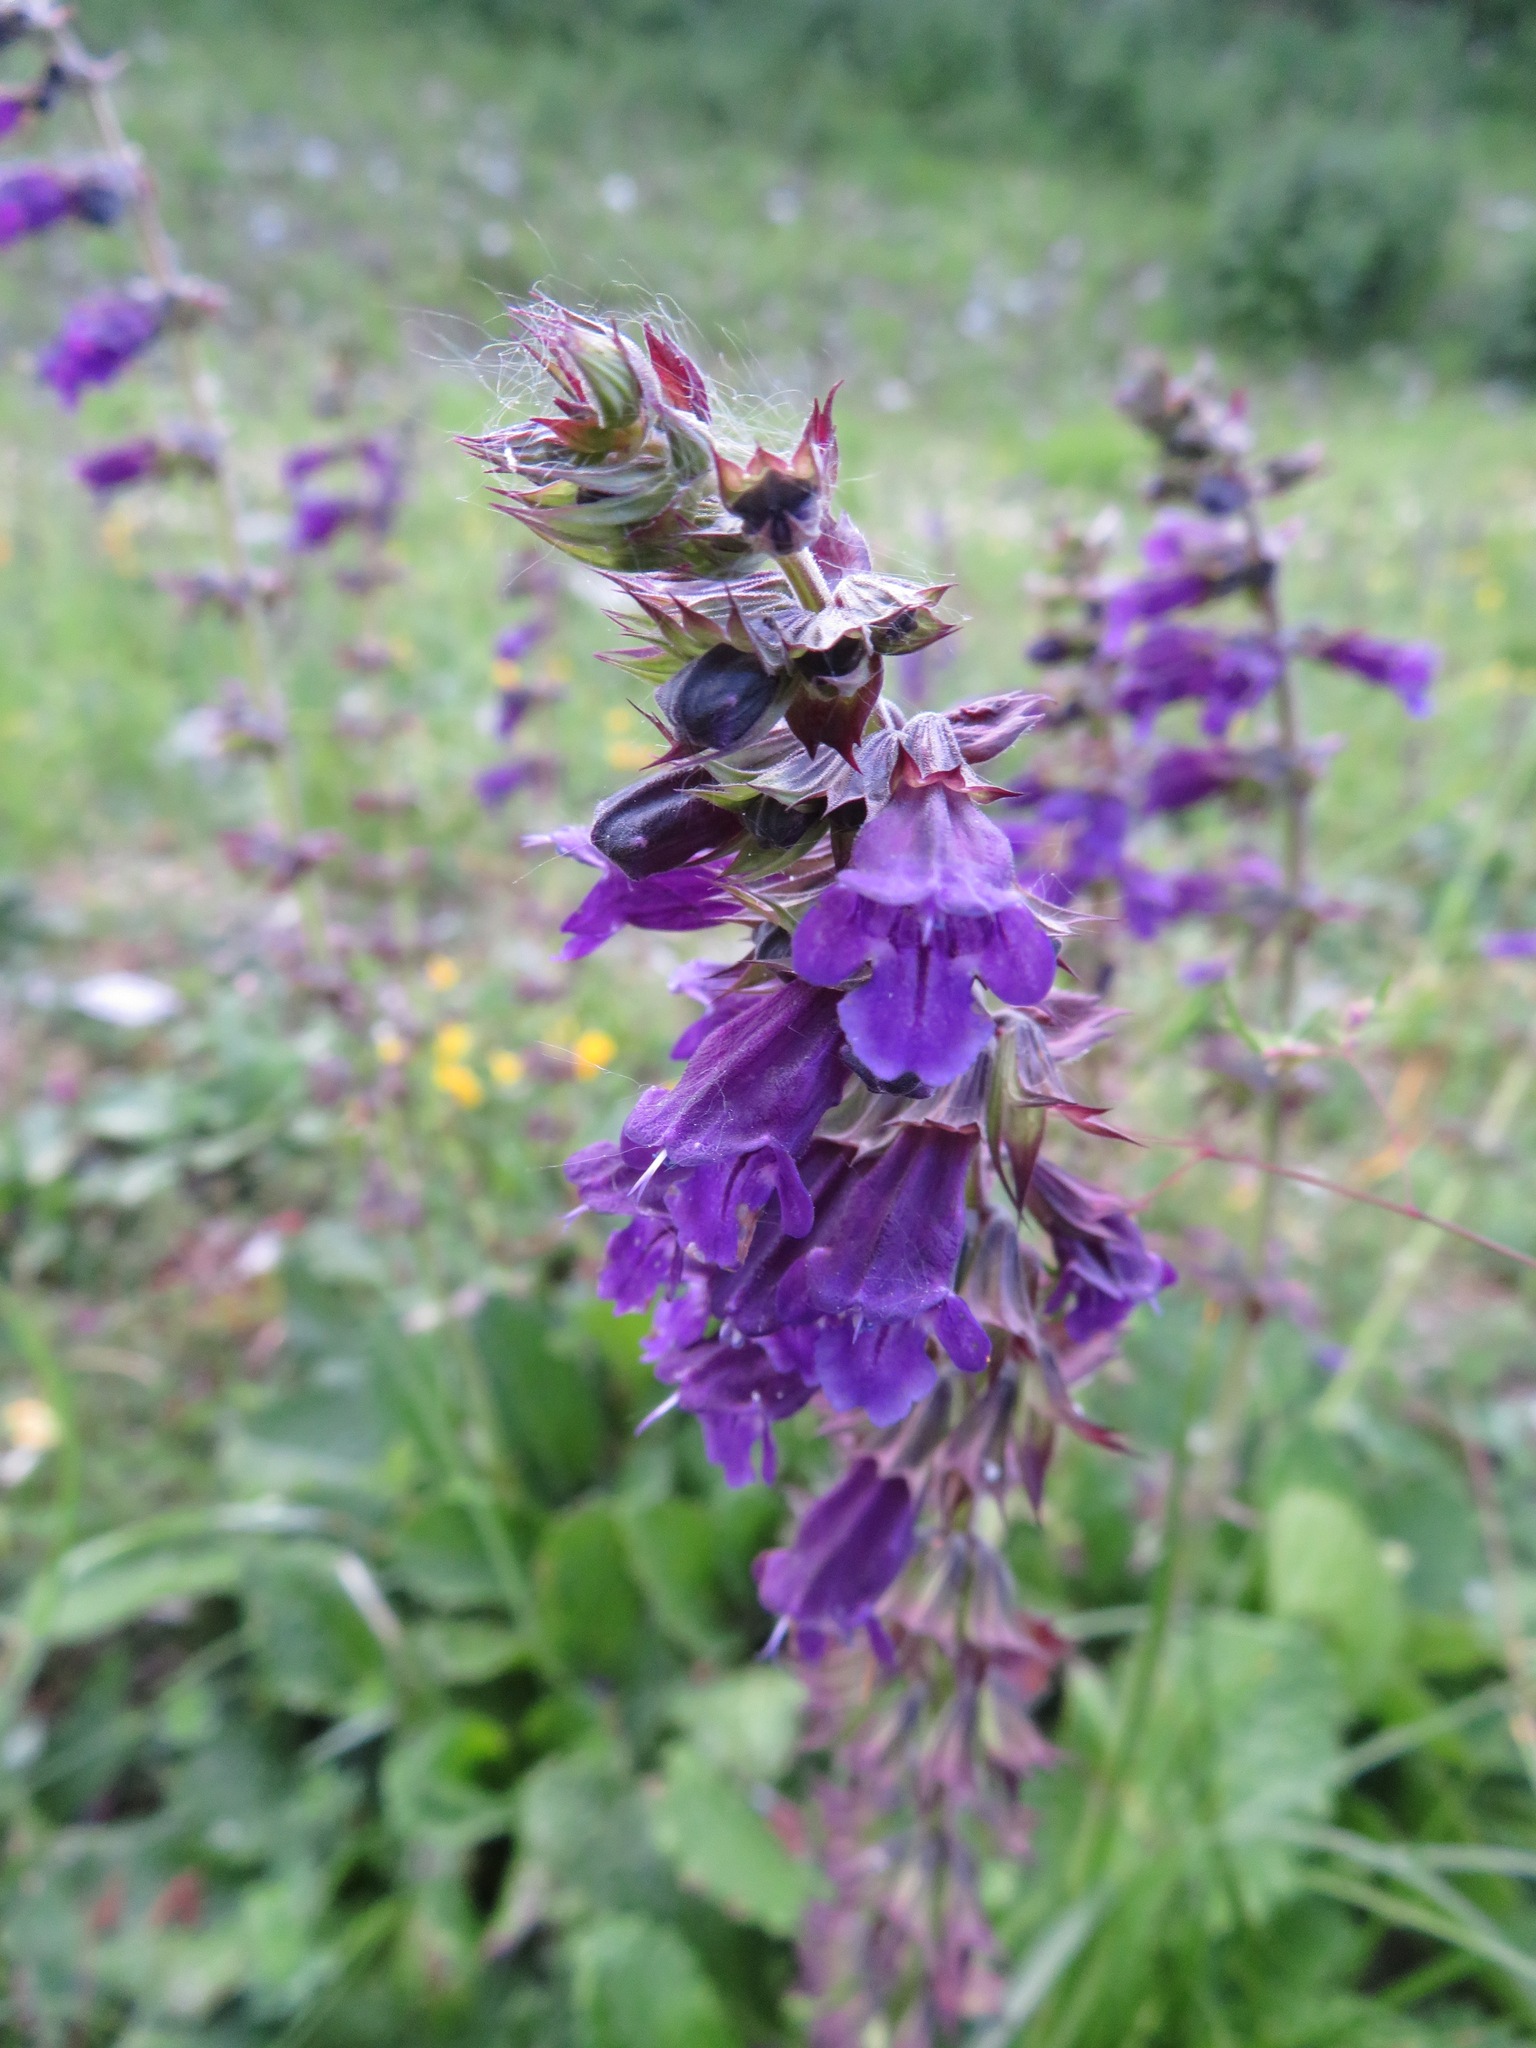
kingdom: Plantae
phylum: Tracheophyta
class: Magnoliopsida
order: Lamiales
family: Lamiaceae
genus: Horminum
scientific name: Horminum pyrenaicum
